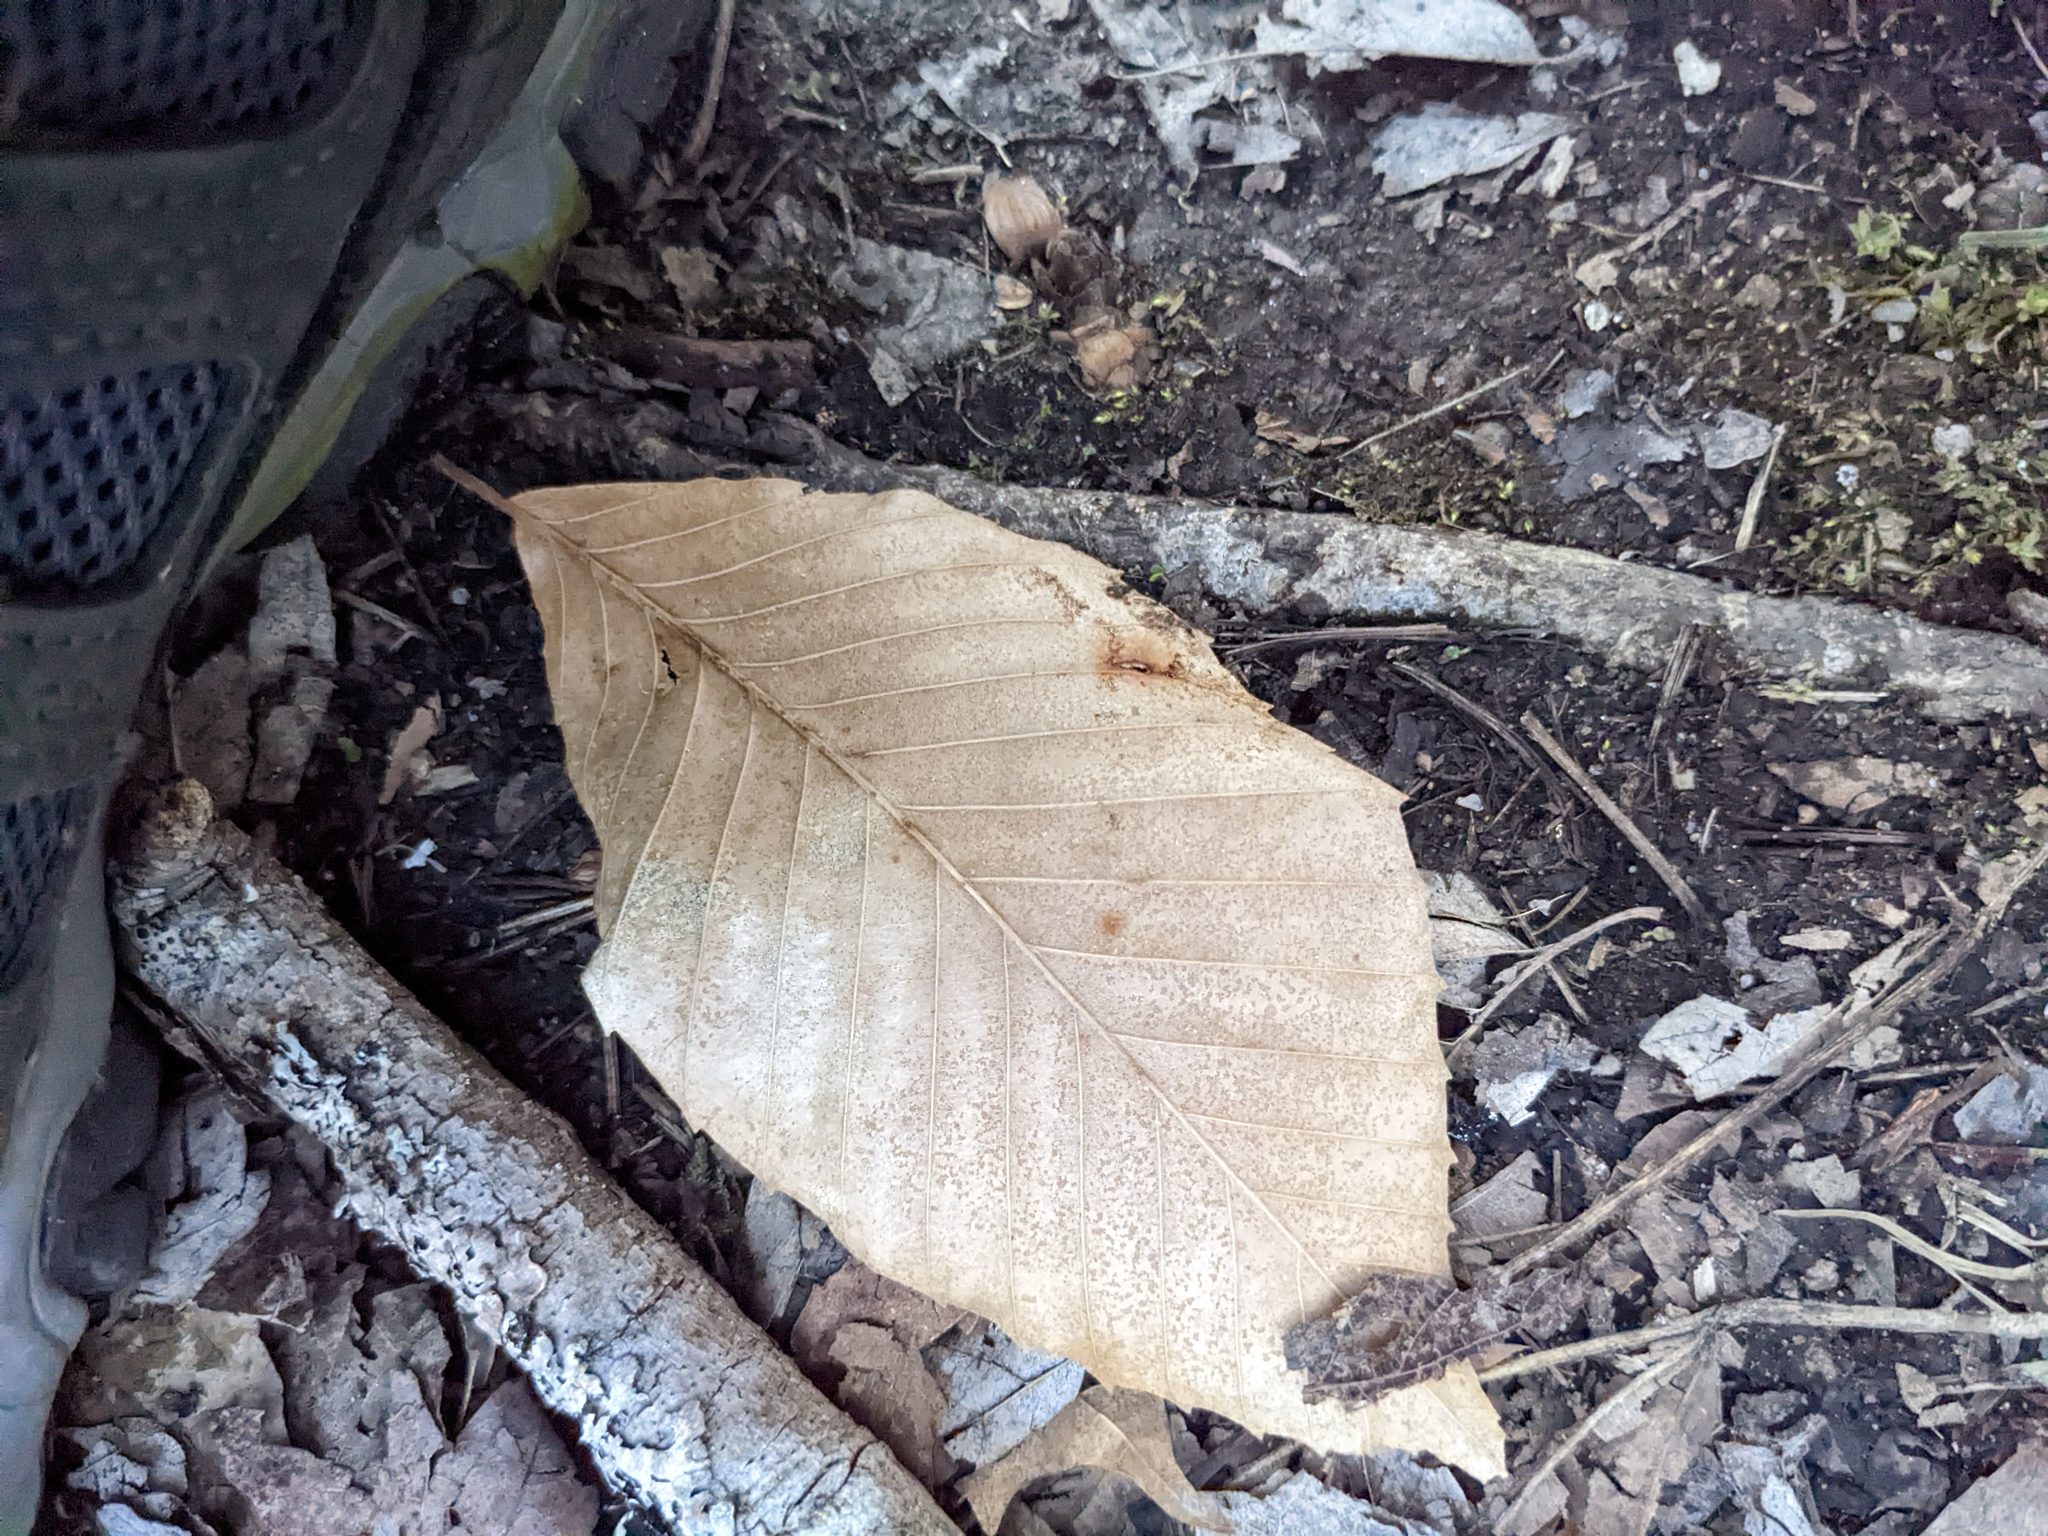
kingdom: Plantae
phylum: Tracheophyta
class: Magnoliopsida
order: Fagales
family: Fagaceae
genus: Fagus
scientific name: Fagus grandifolia
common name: American beech
